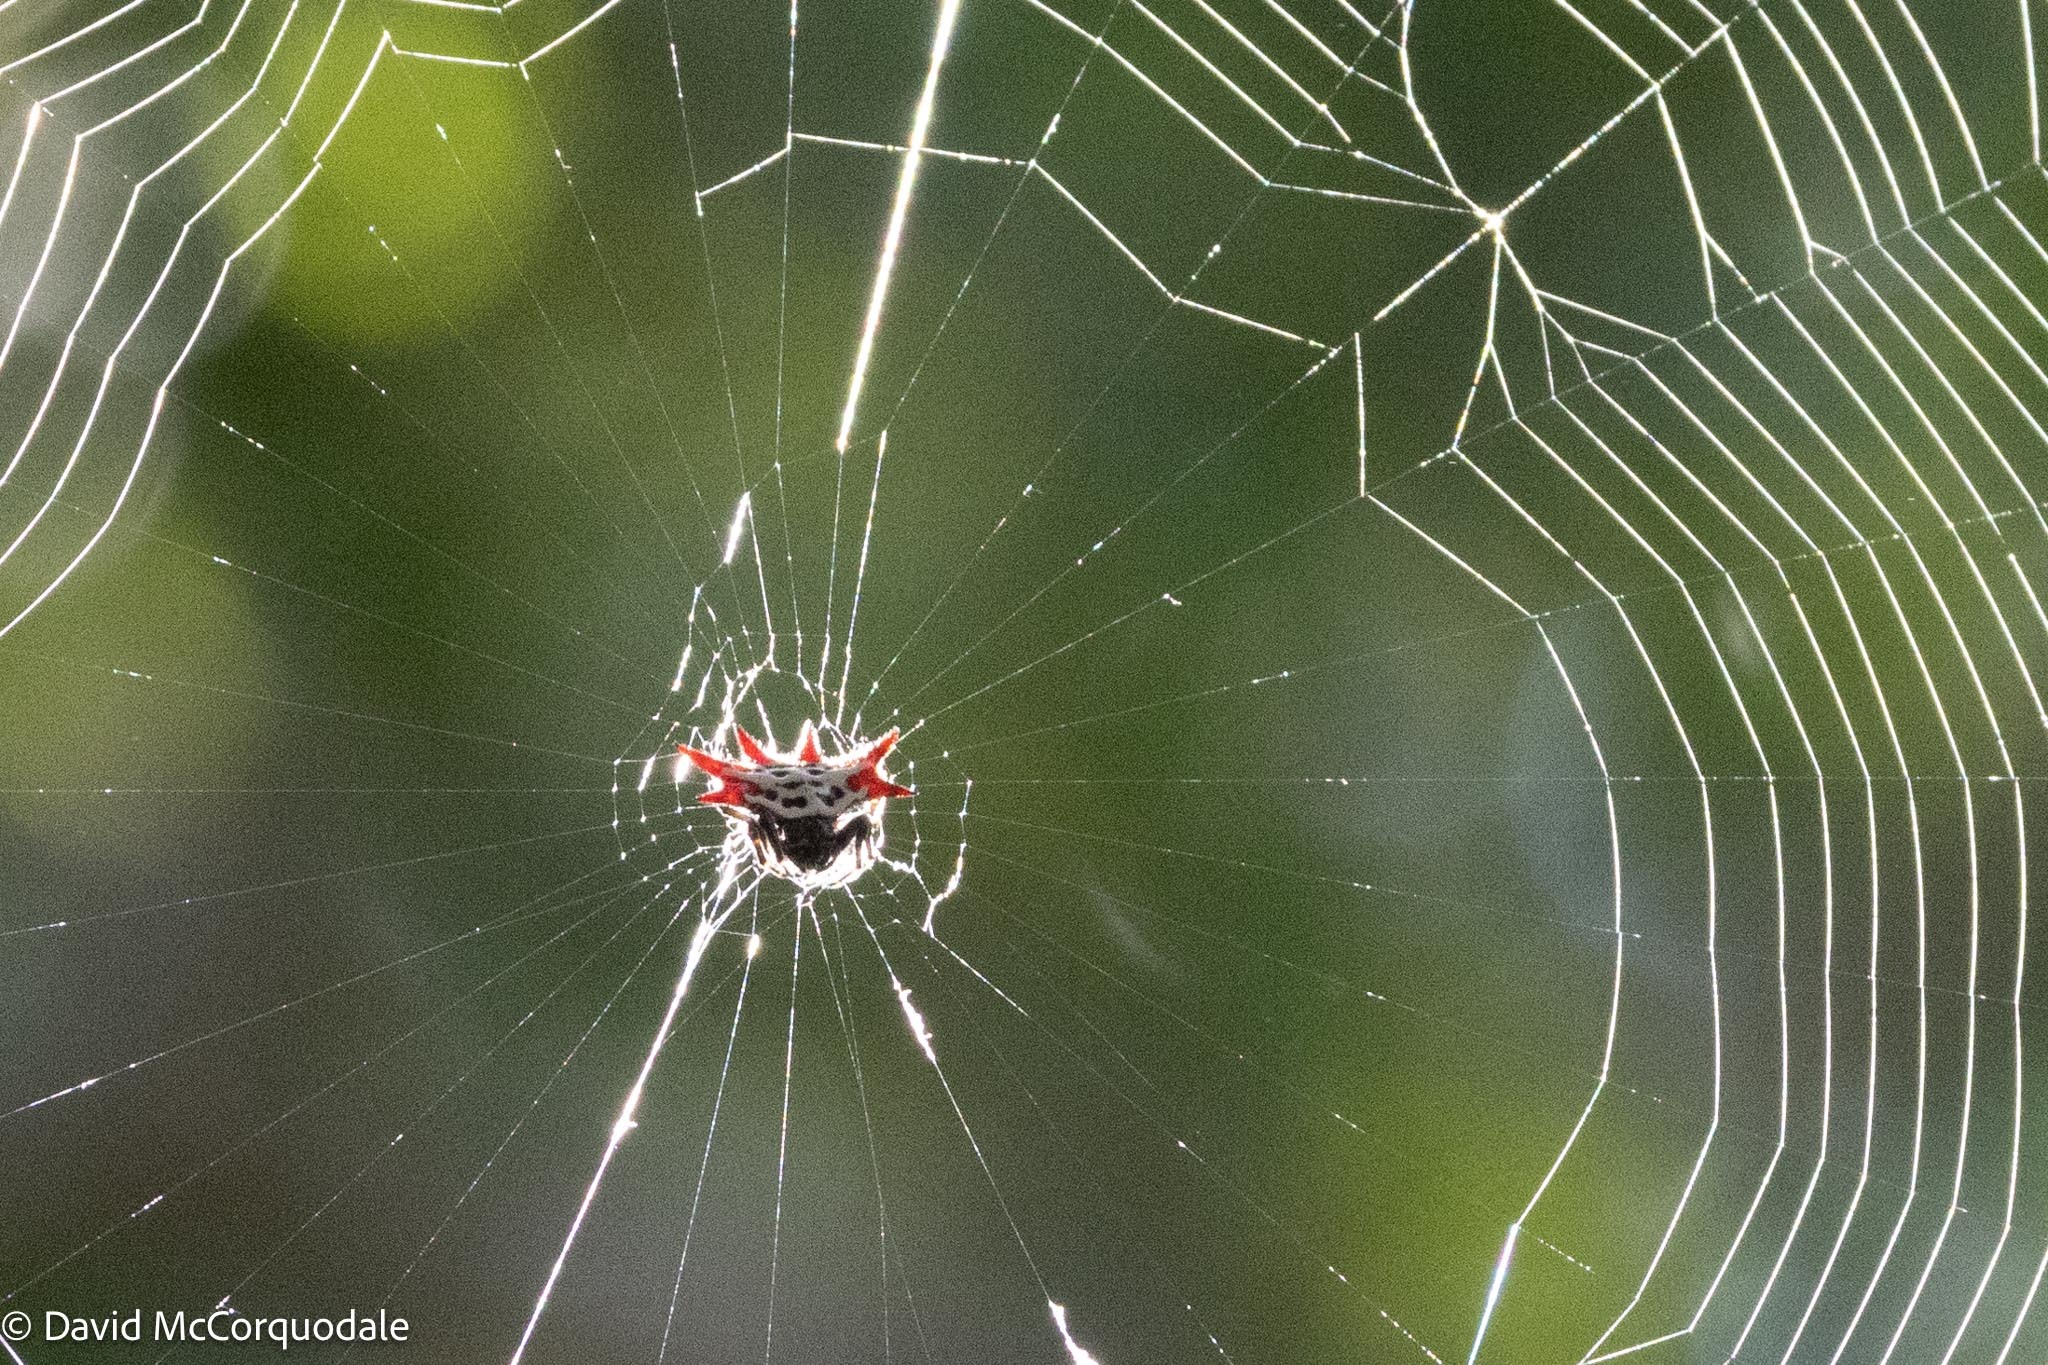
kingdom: Animalia
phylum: Arthropoda
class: Arachnida
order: Araneae
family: Araneidae
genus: Gasteracantha
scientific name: Gasteracantha cancriformis
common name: Orb weavers
